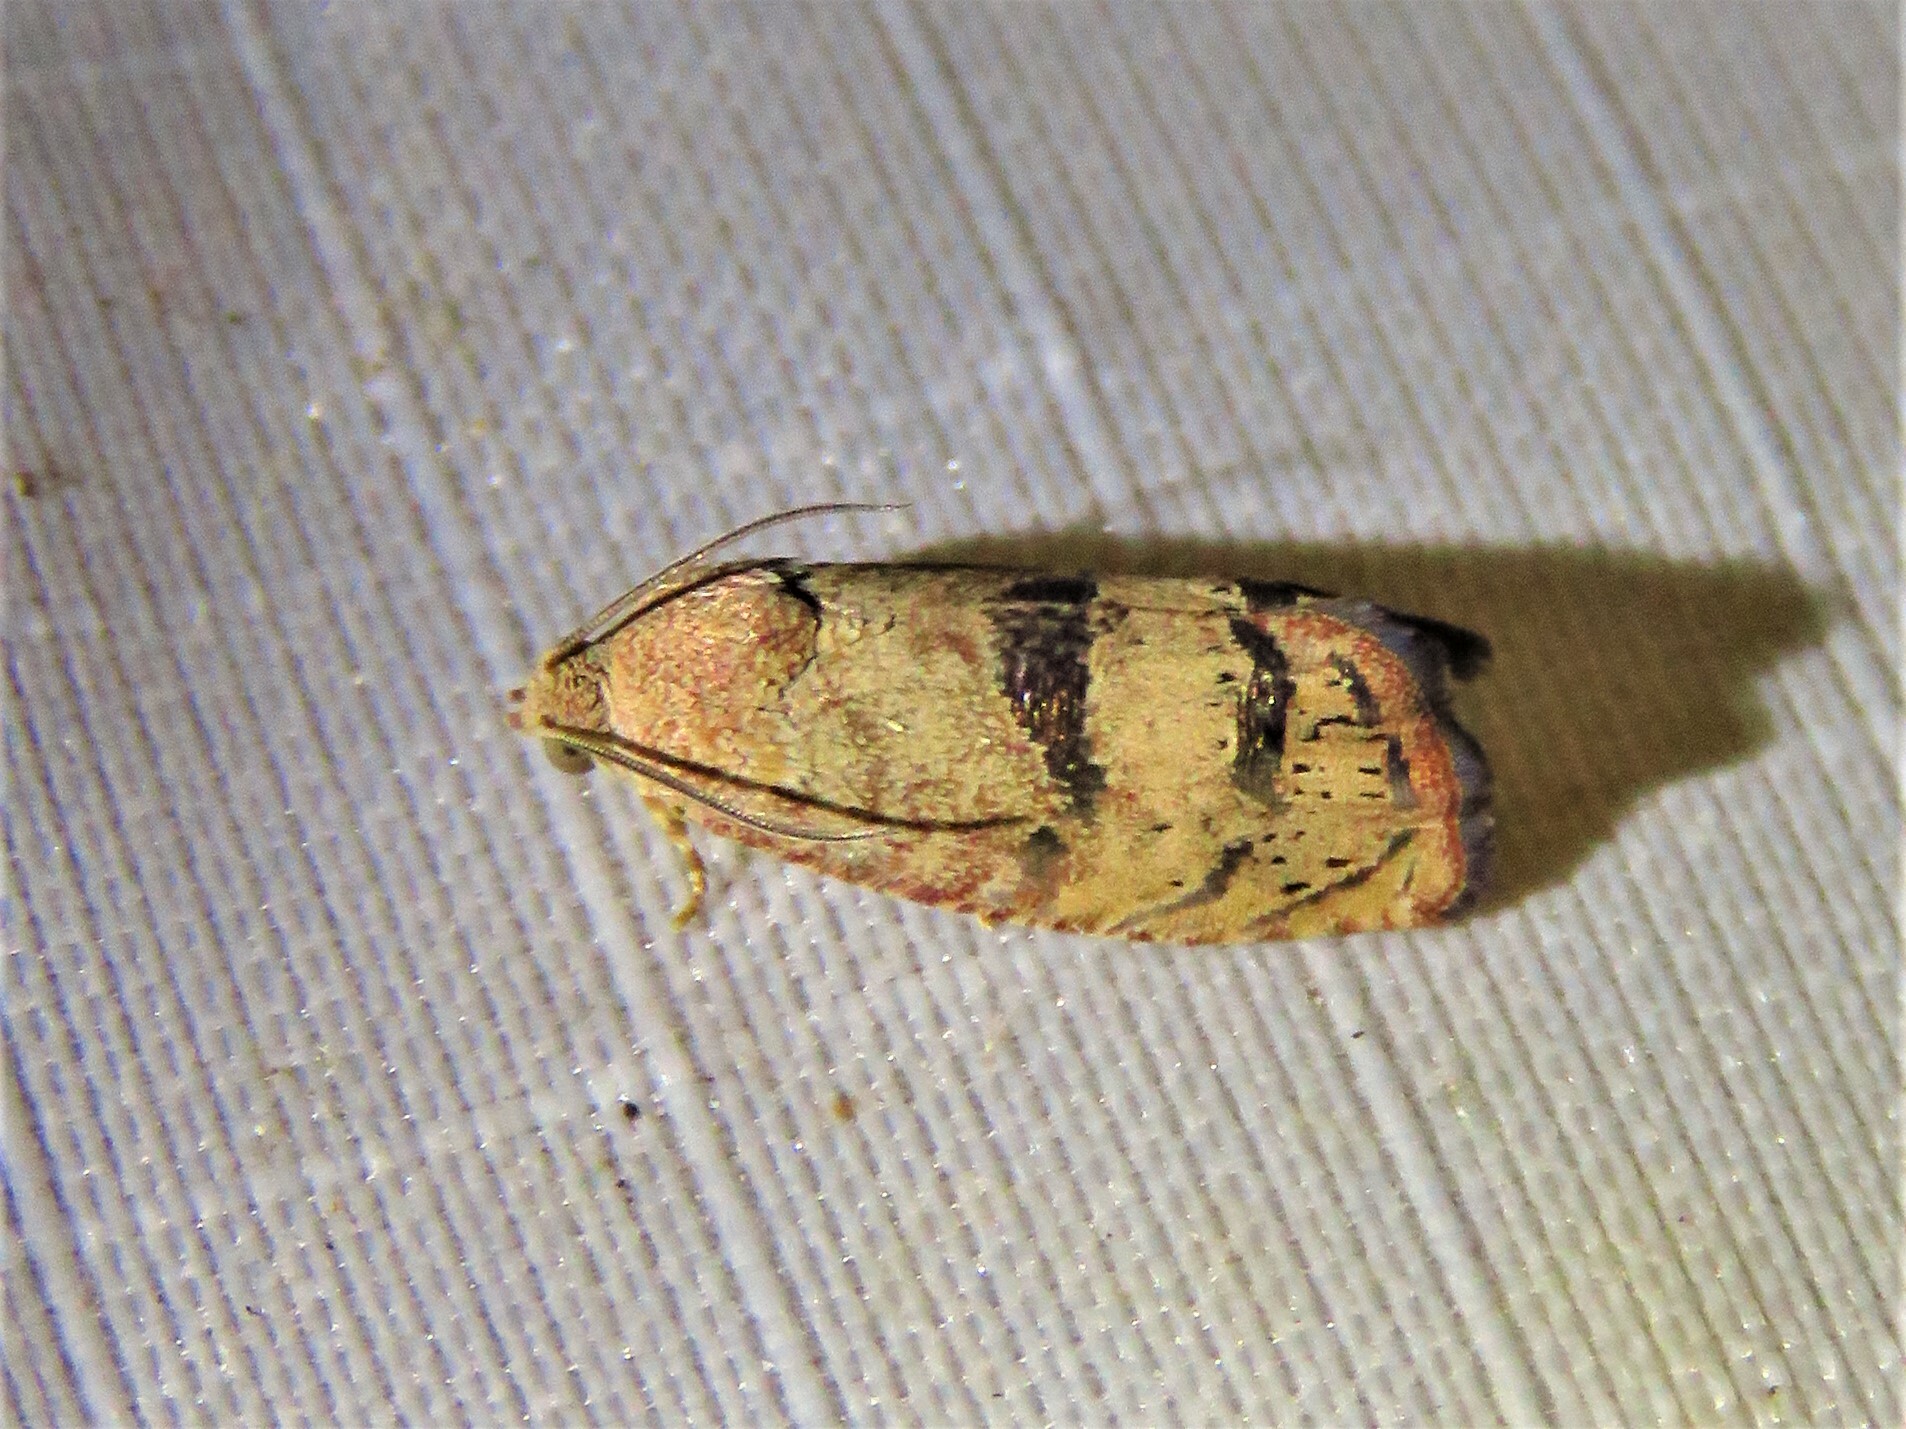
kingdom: Animalia
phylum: Arthropoda
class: Insecta
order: Lepidoptera
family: Tortricidae
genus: Cydia
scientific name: Cydia latiferreana
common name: Filbertworm moth
